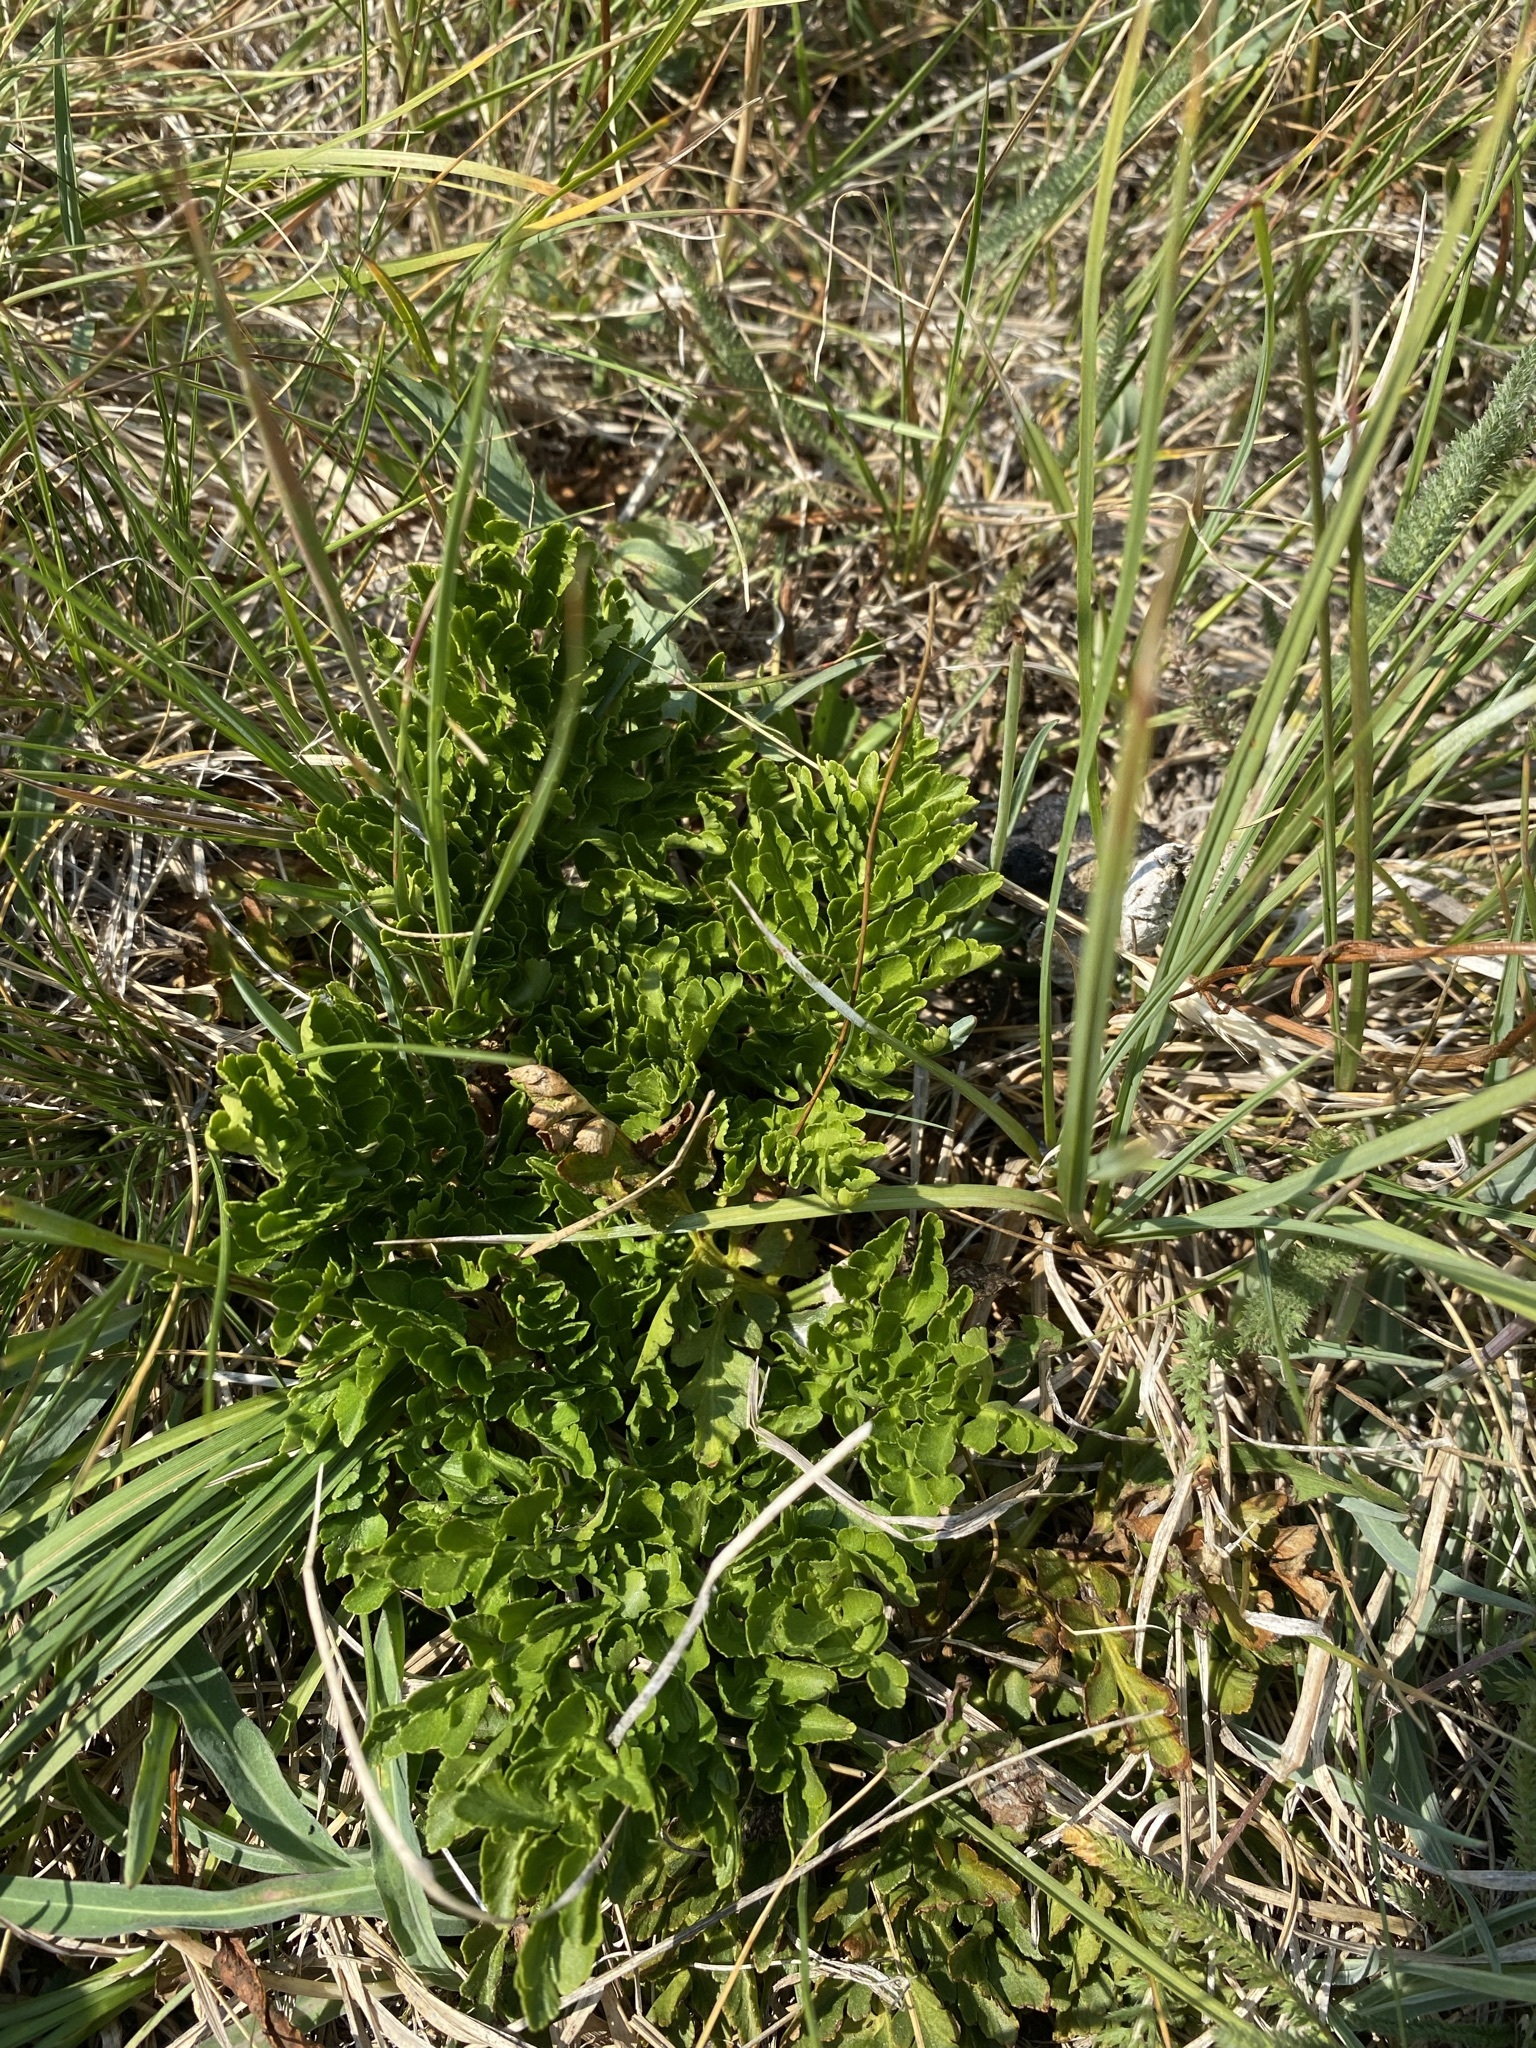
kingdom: Plantae
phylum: Tracheophyta
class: Polypodiopsida
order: Ophioglossales
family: Ophioglossaceae
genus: Sceptridium
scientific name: Sceptridium multifidum
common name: Leathery grape fern
